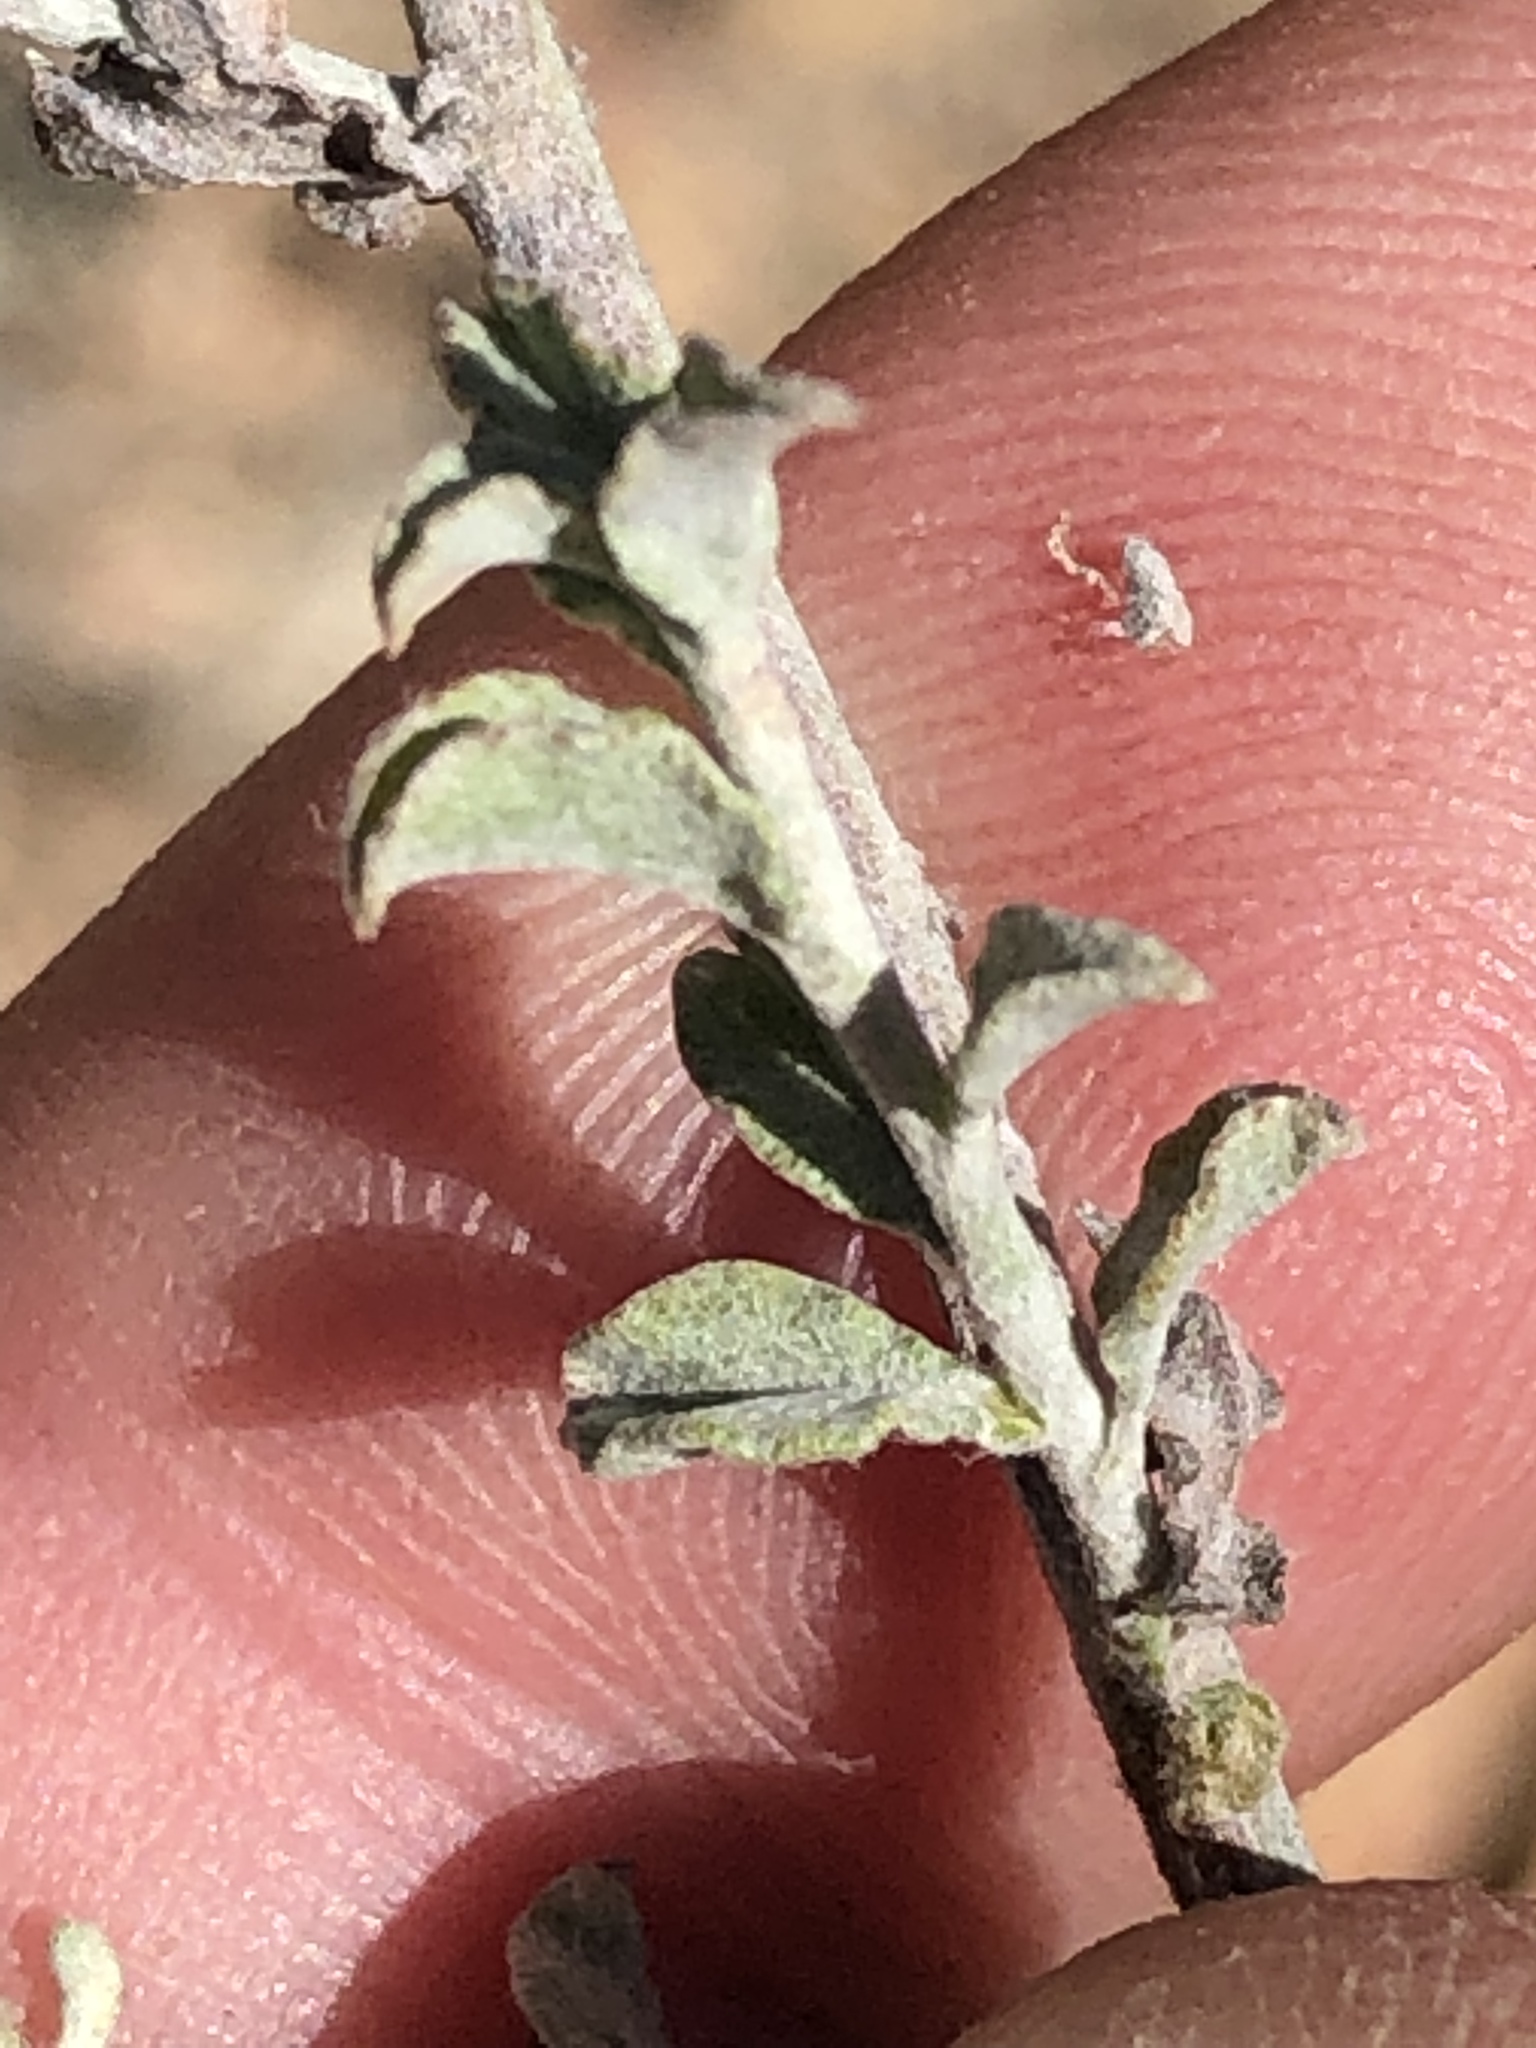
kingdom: Plantae
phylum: Tracheophyta
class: Magnoliopsida
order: Asterales
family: Asteraceae
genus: Helichrysum
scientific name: Helichrysum zeyheri
